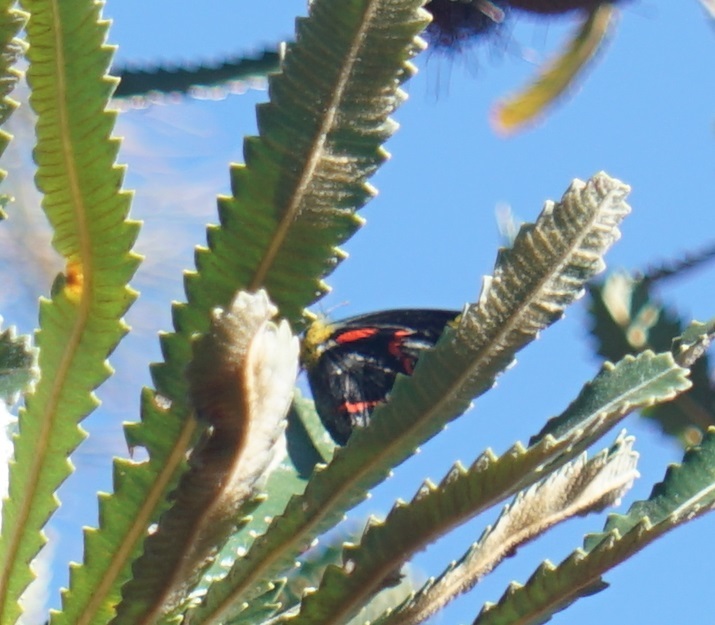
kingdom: Animalia
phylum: Arthropoda
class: Insecta
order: Lepidoptera
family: Pieridae
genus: Delias
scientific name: Delias nigrina
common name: Black jezebel
